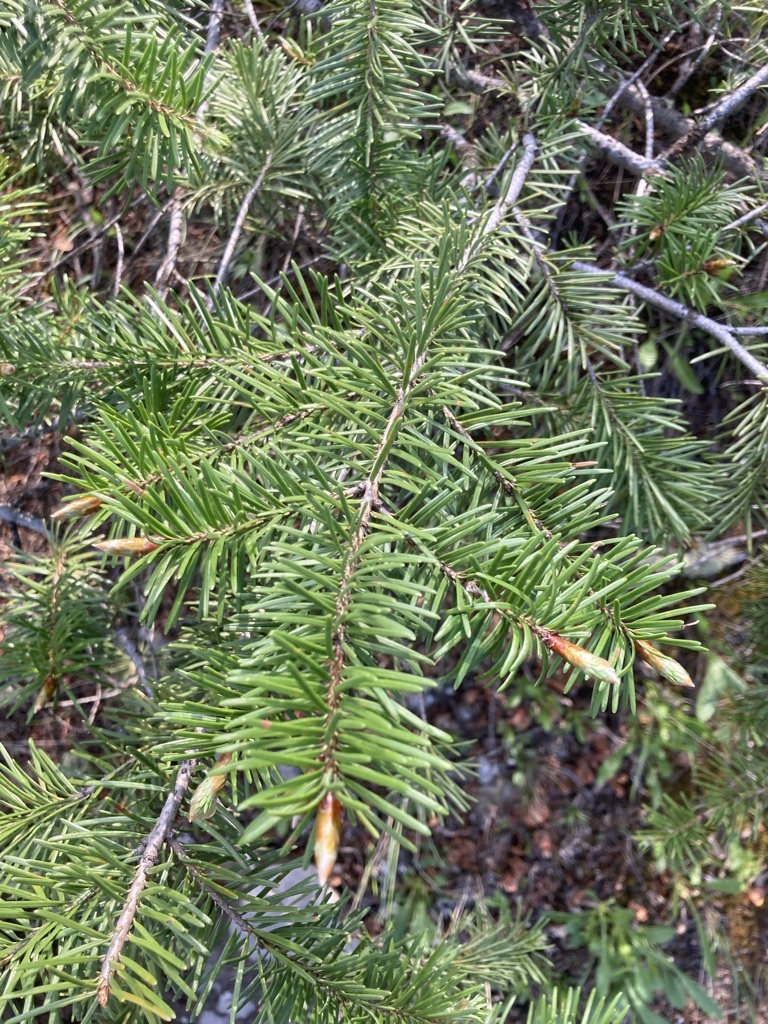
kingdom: Plantae
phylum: Tracheophyta
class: Pinopsida
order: Pinales
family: Pinaceae
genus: Pseudotsuga
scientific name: Pseudotsuga menziesii
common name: Douglas fir
